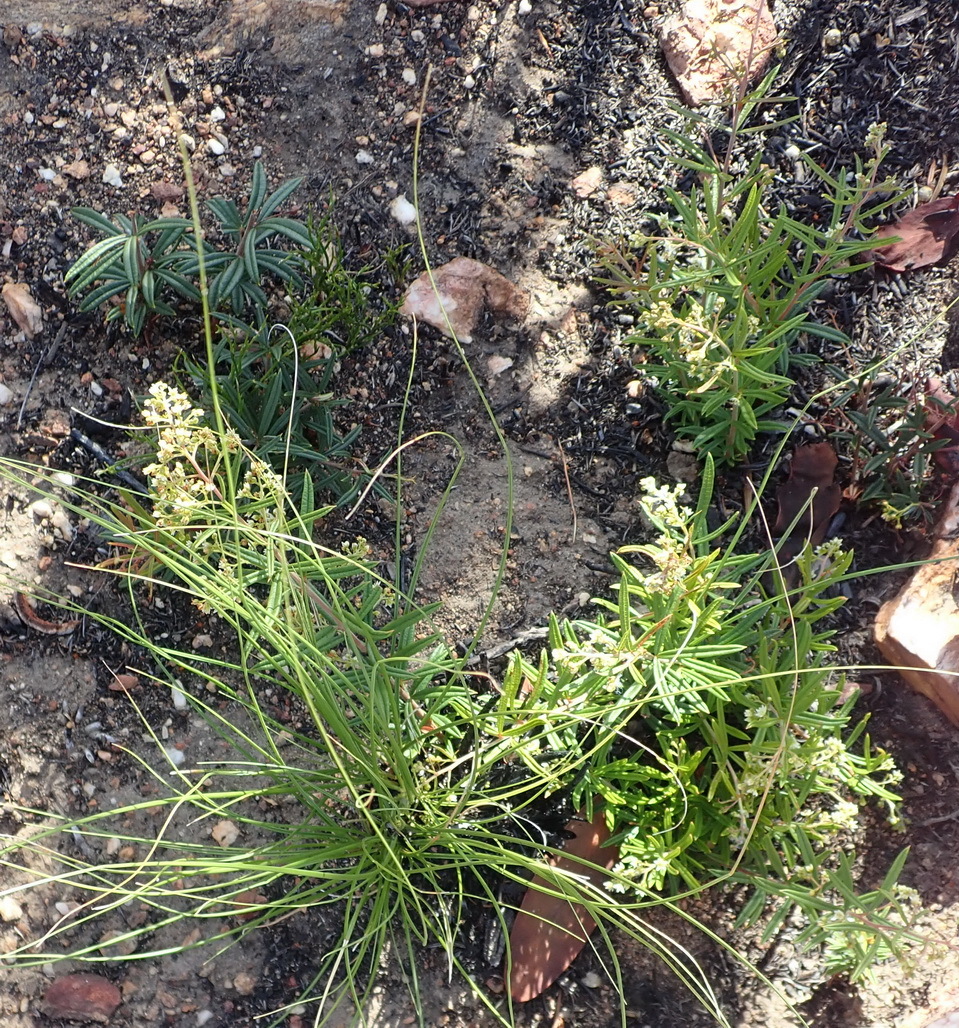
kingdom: Plantae
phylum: Tracheophyta
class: Magnoliopsida
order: Sapindales
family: Anacardiaceae
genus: Searsia
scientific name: Searsia rosmarinifolia
